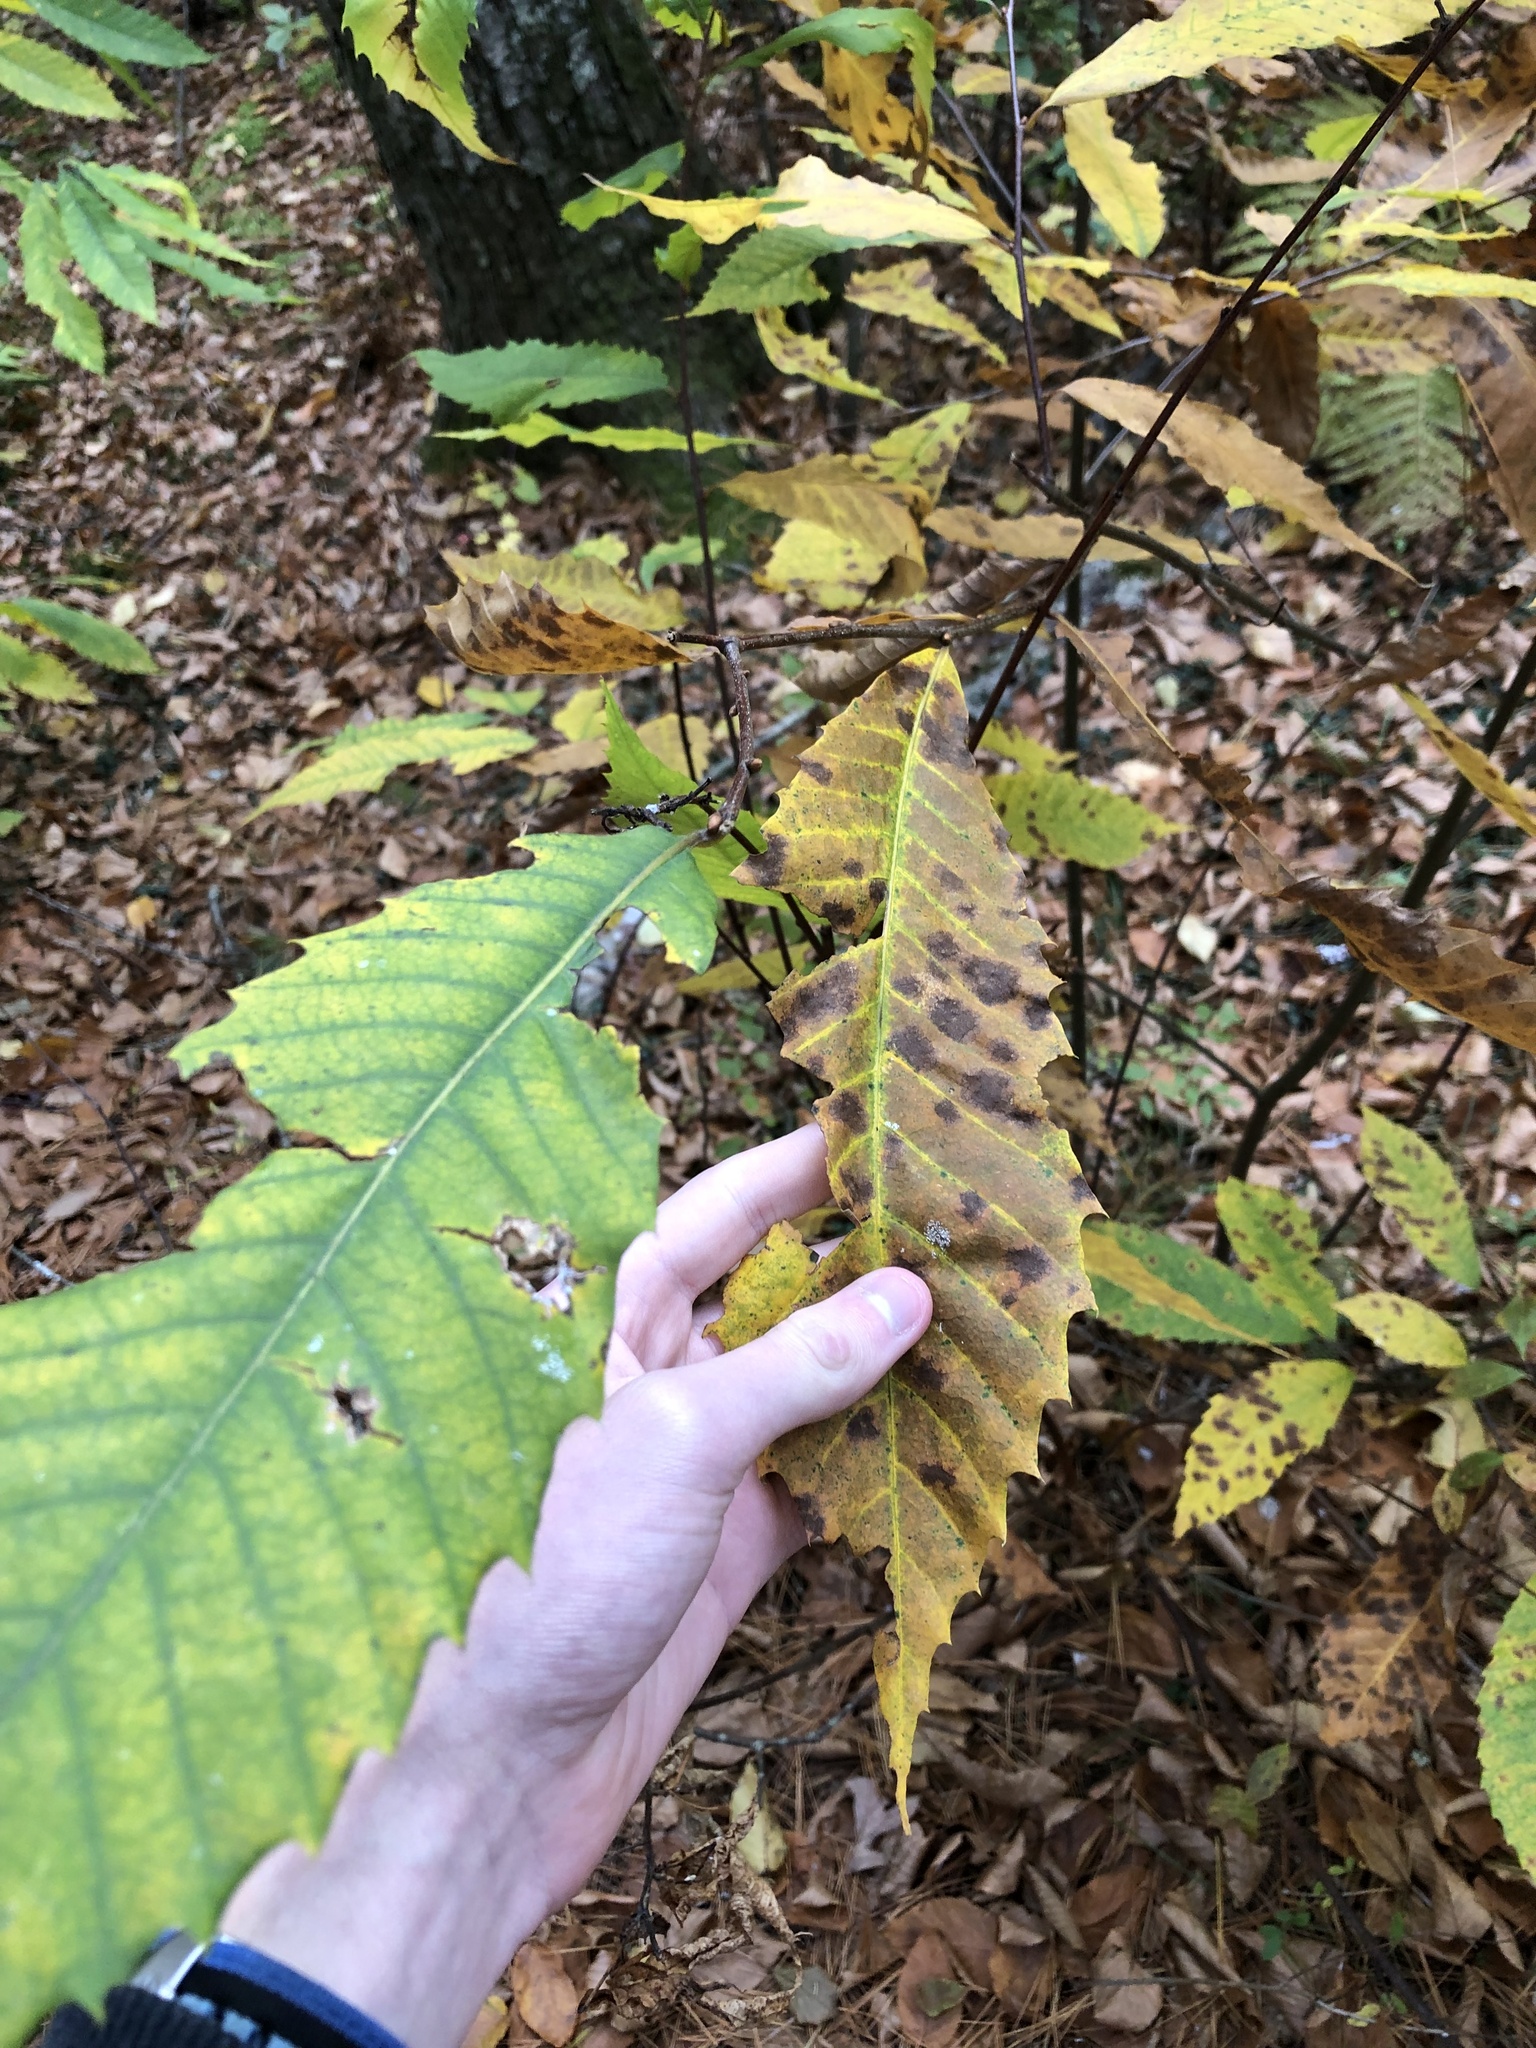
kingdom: Plantae
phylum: Tracheophyta
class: Magnoliopsida
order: Fagales
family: Fagaceae
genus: Castanea
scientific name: Castanea dentata
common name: American chestnut
